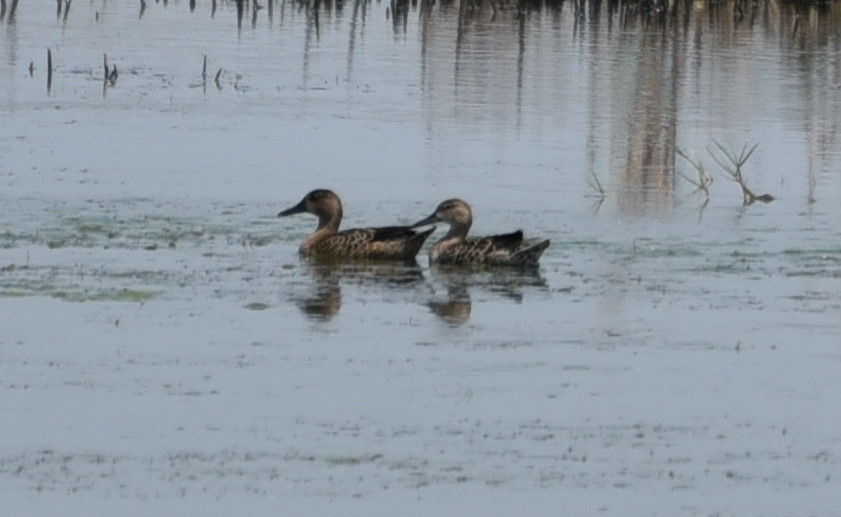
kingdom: Animalia
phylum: Chordata
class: Aves
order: Anseriformes
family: Anatidae
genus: Spatula
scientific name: Spatula discors
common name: Blue-winged teal
